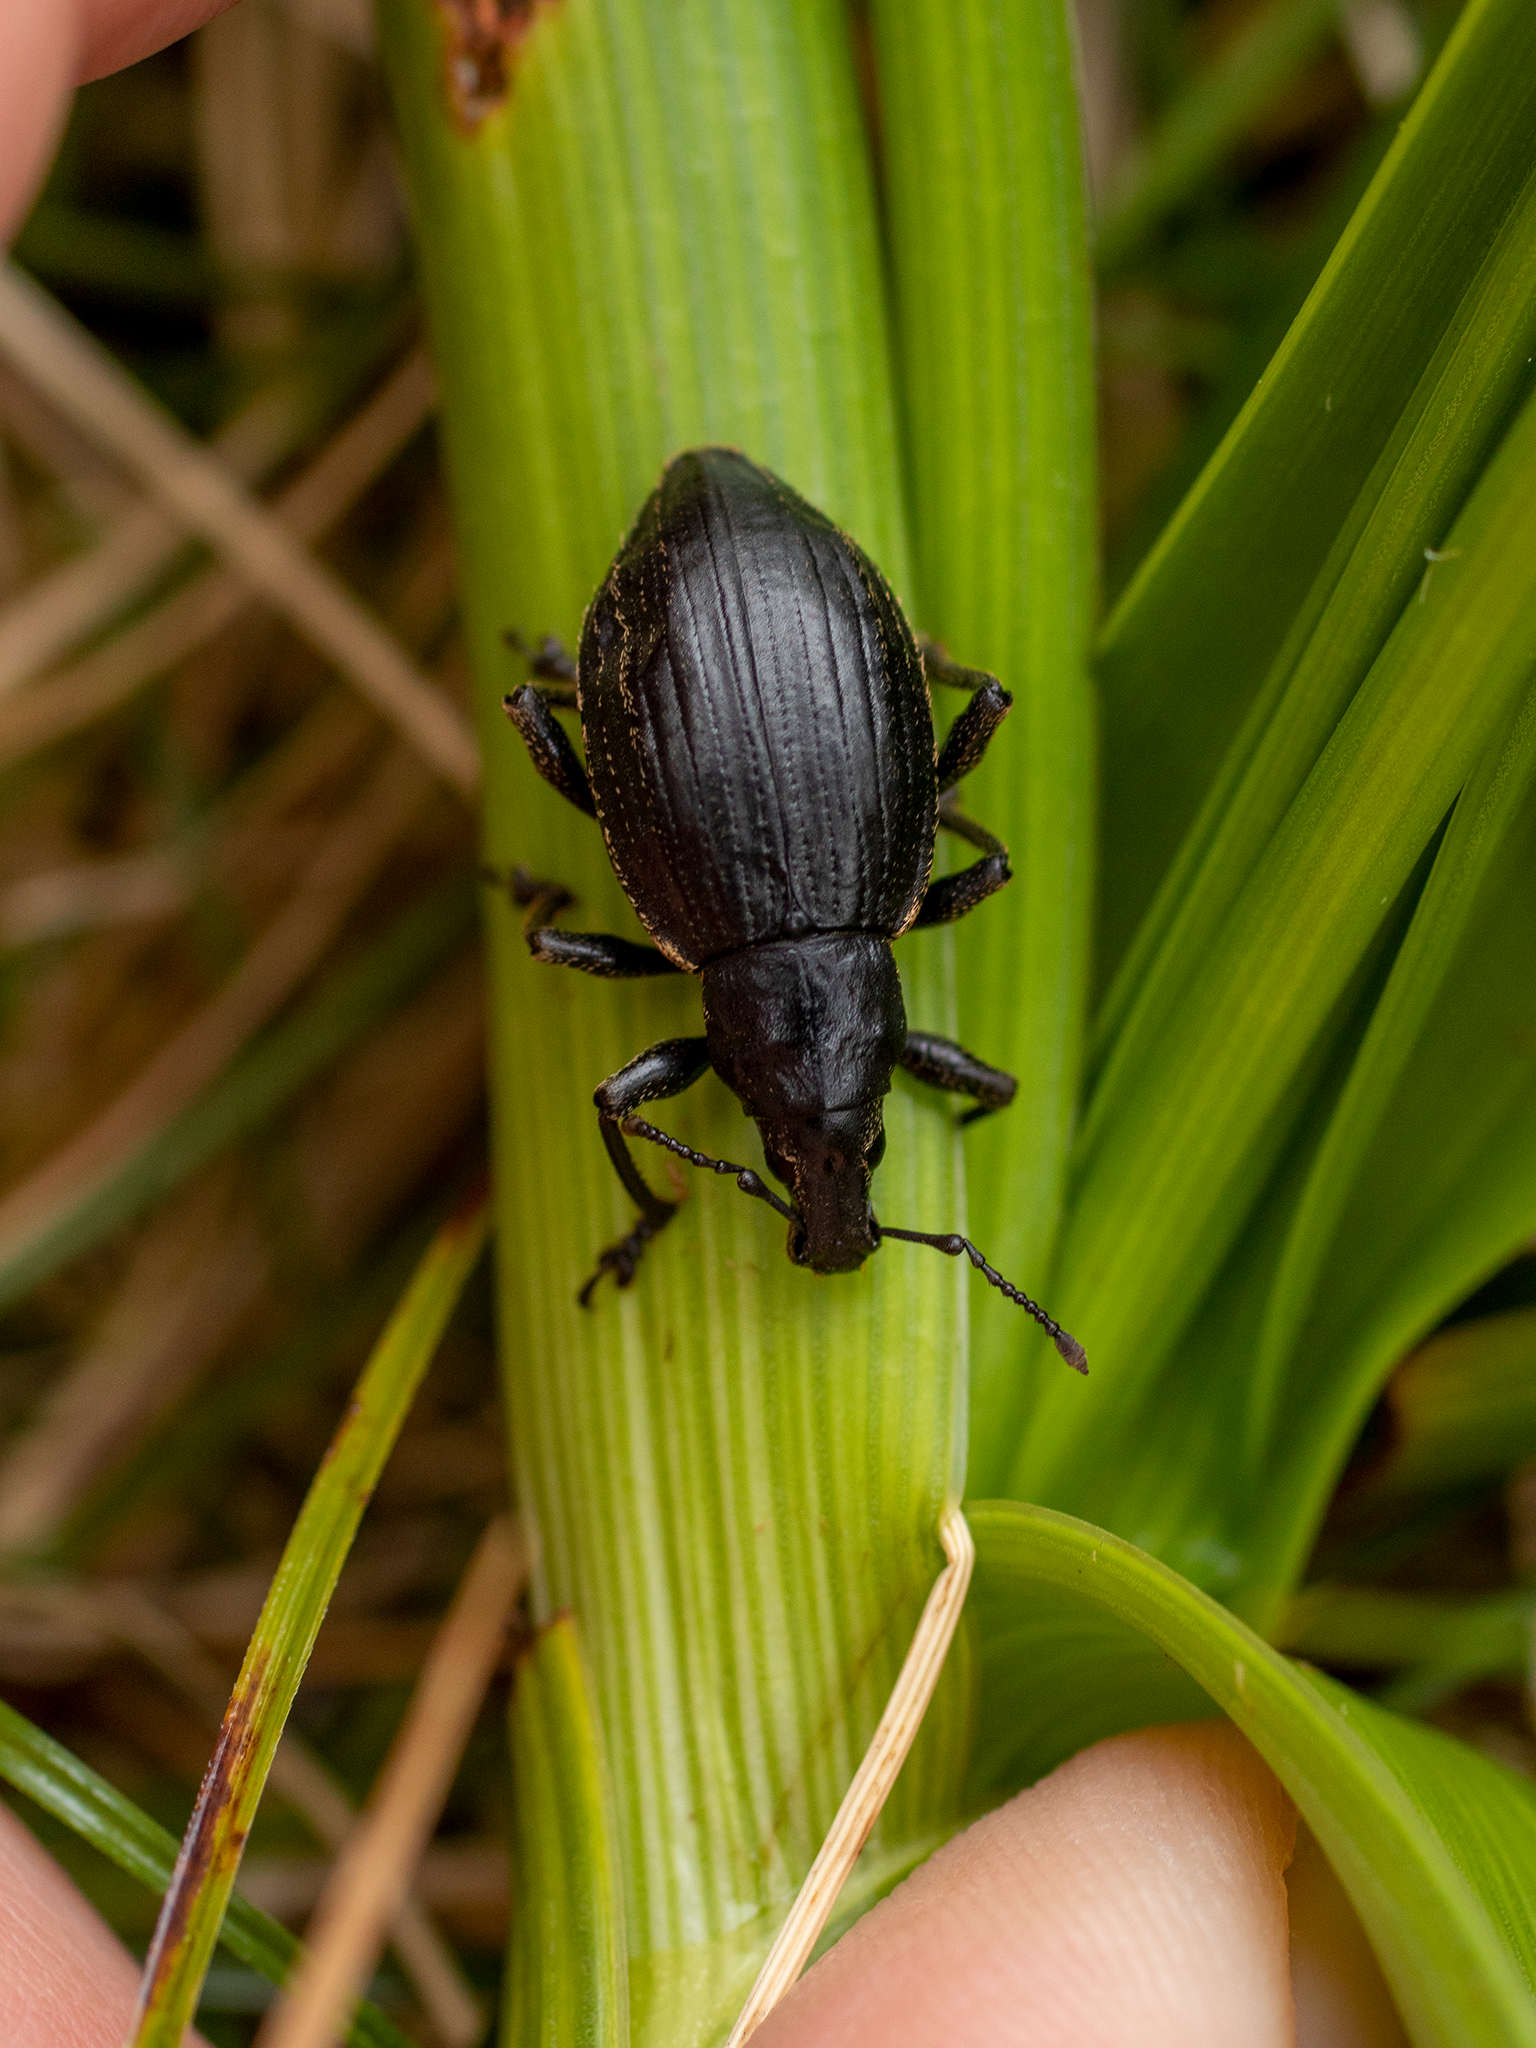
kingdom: Animalia
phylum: Arthropoda
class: Insecta
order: Coleoptera
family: Curculionidae
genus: Oclandius
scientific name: Oclandius cinereus
